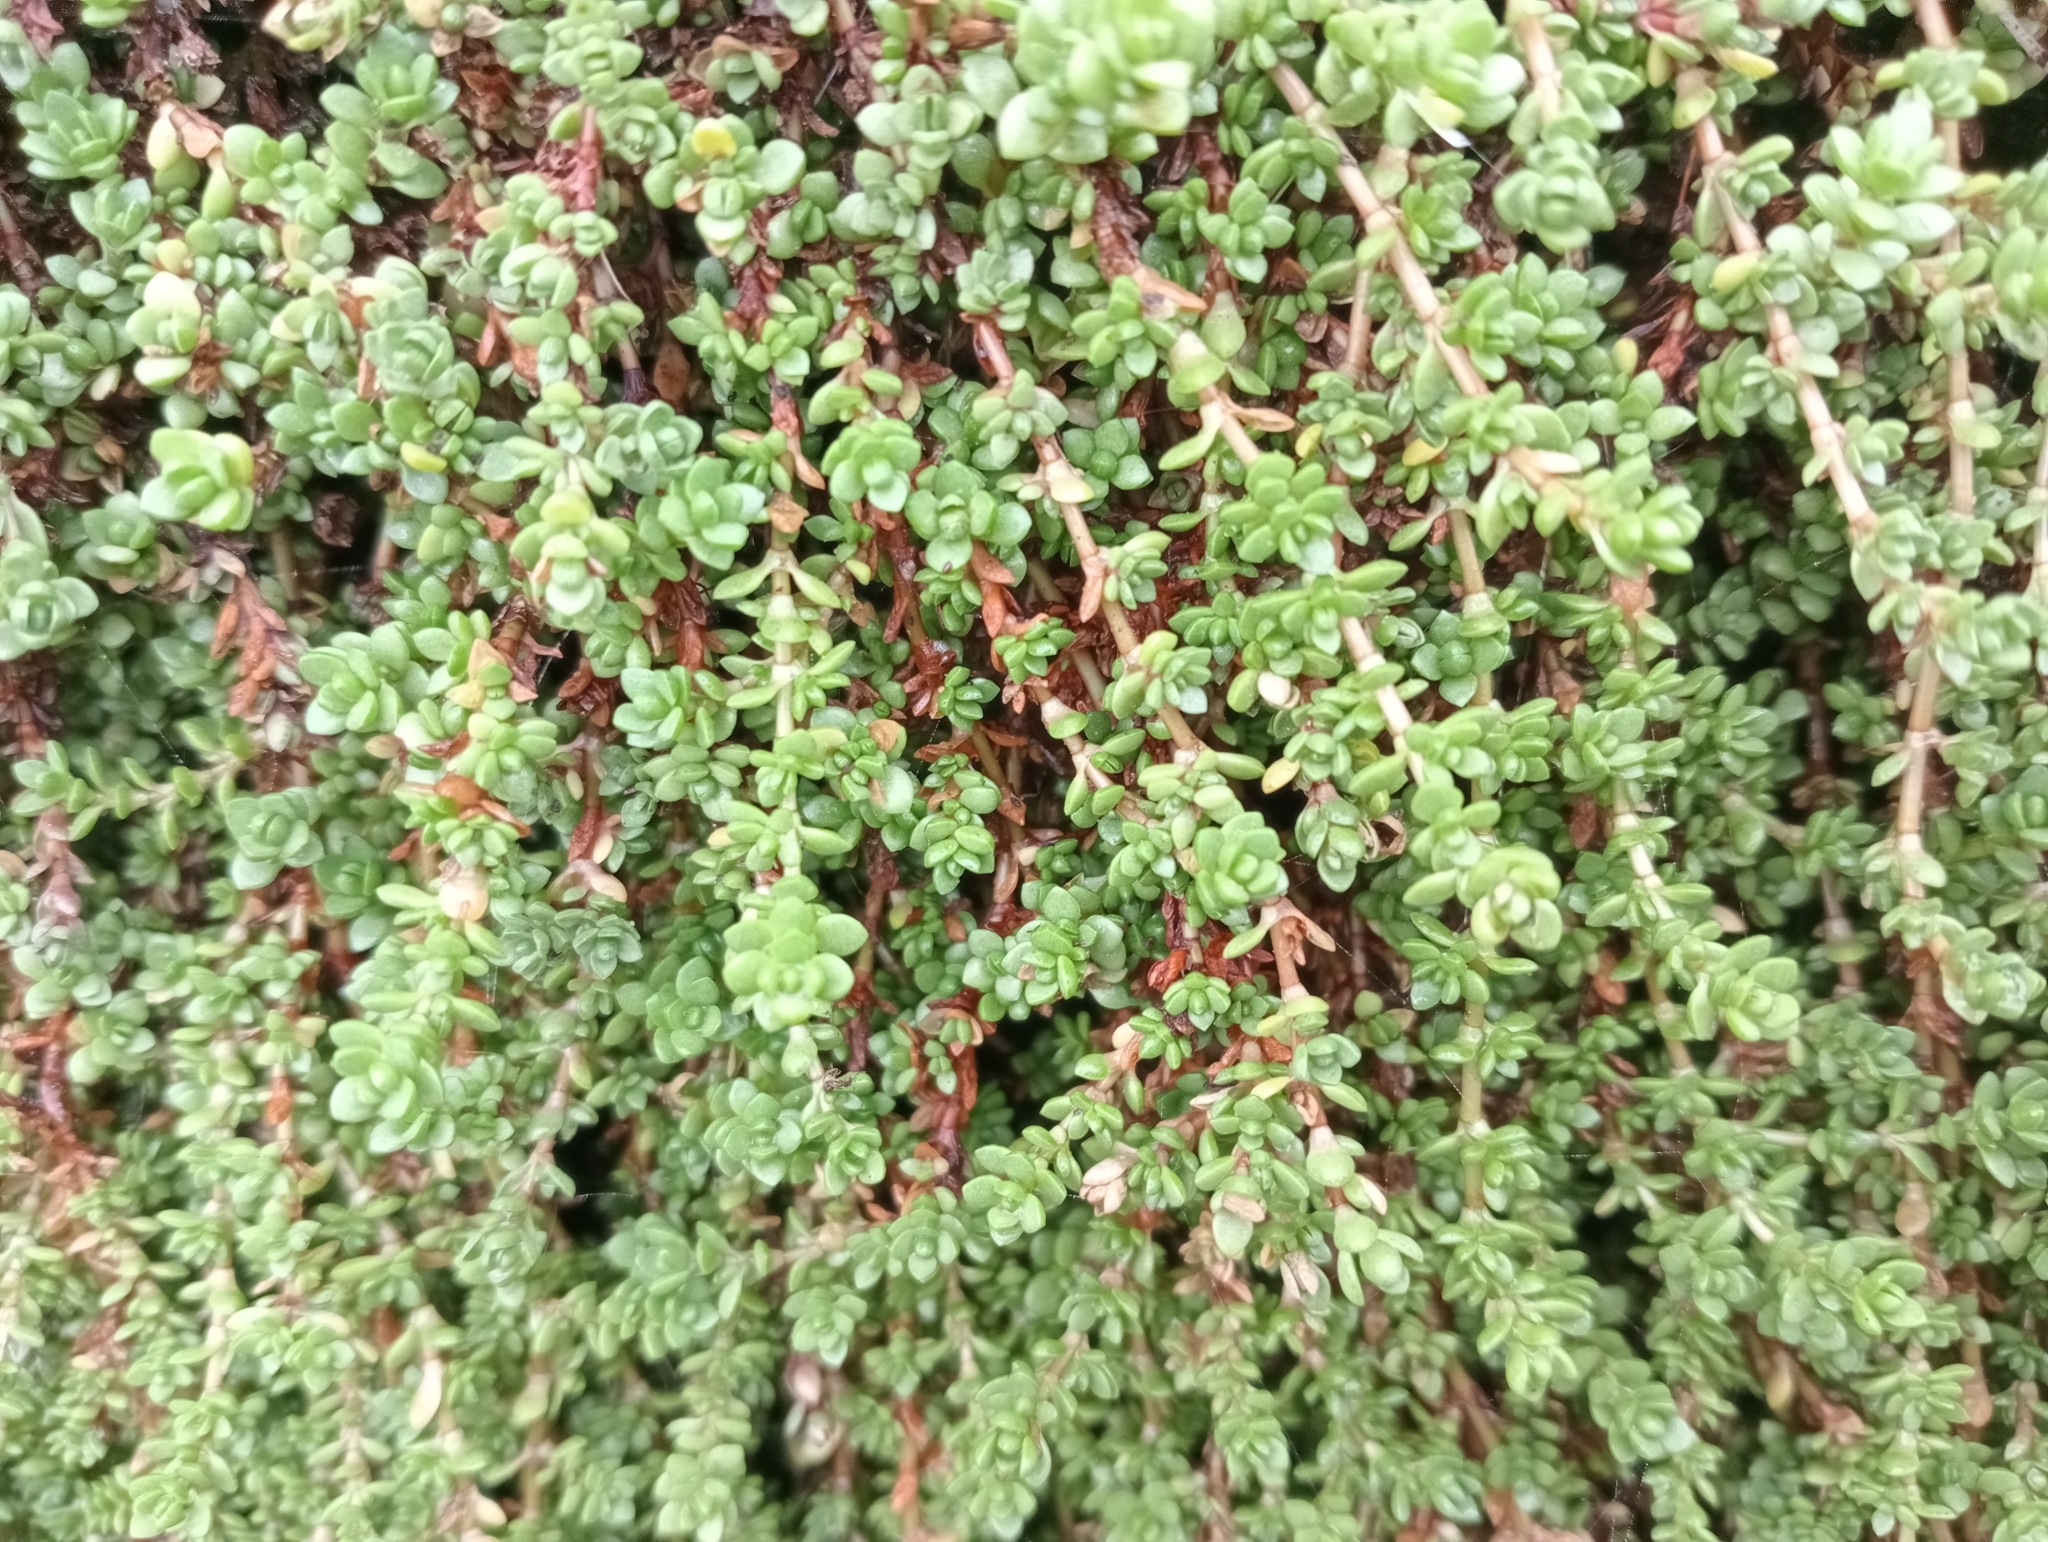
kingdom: Plantae
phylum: Tracheophyta
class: Magnoliopsida
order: Saxifragales
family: Crassulaceae
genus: Crassula
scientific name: Crassula moschata
